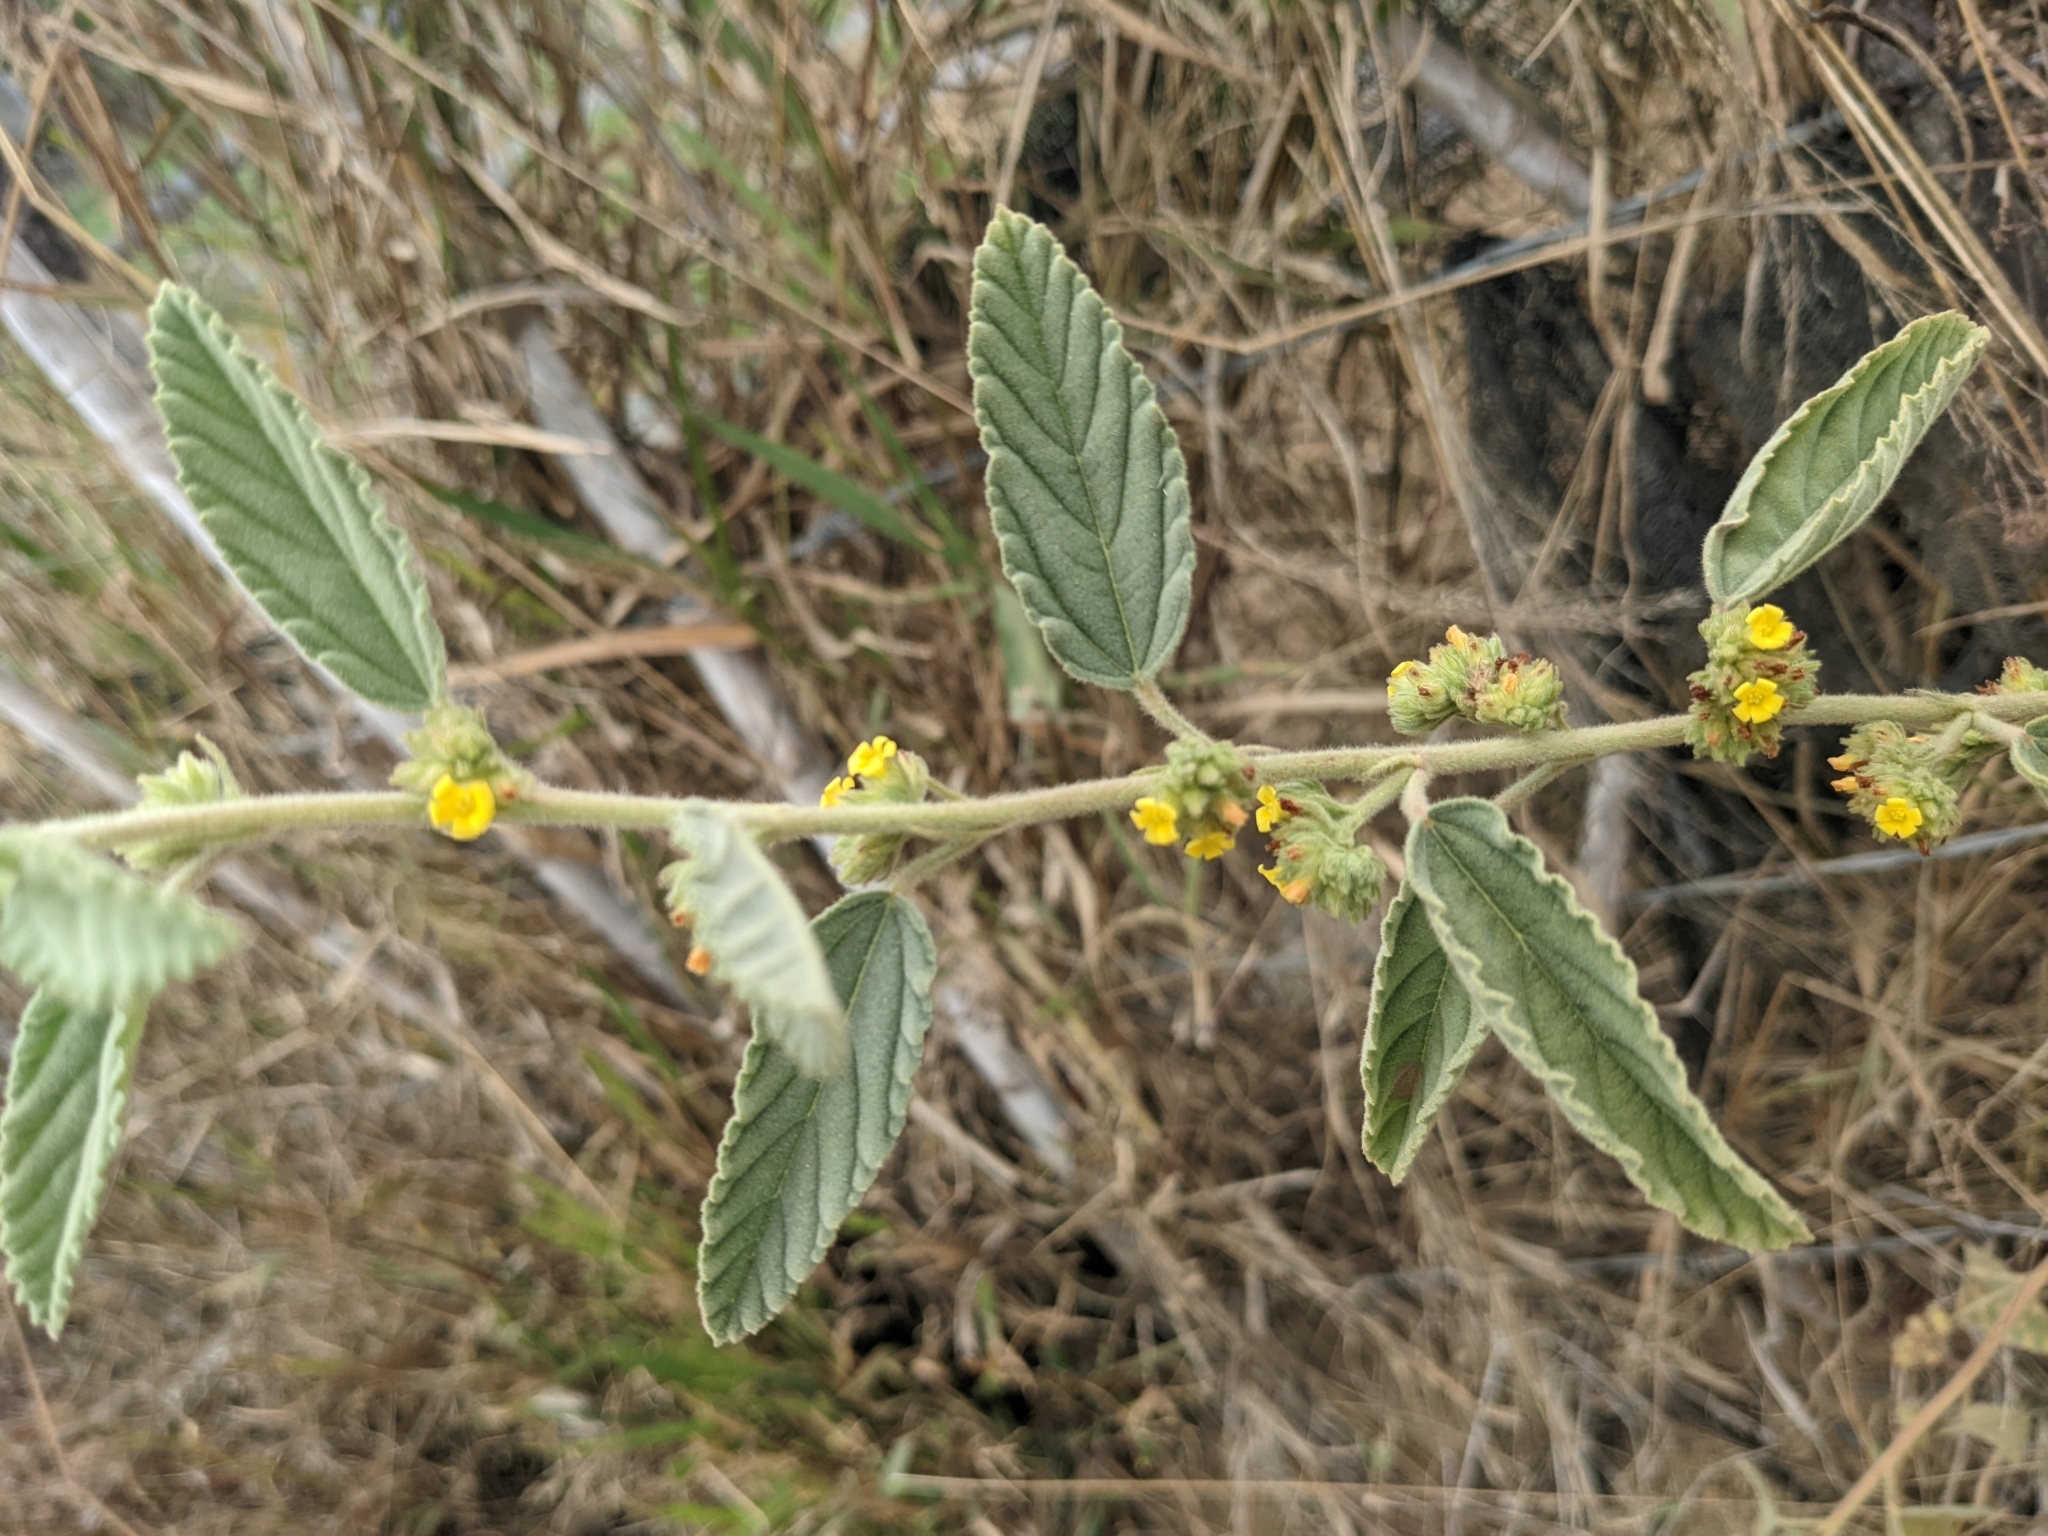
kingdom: Plantae
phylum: Tracheophyta
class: Magnoliopsida
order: Malvales
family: Malvaceae
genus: Waltheria
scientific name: Waltheria indica
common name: Leather-coat
